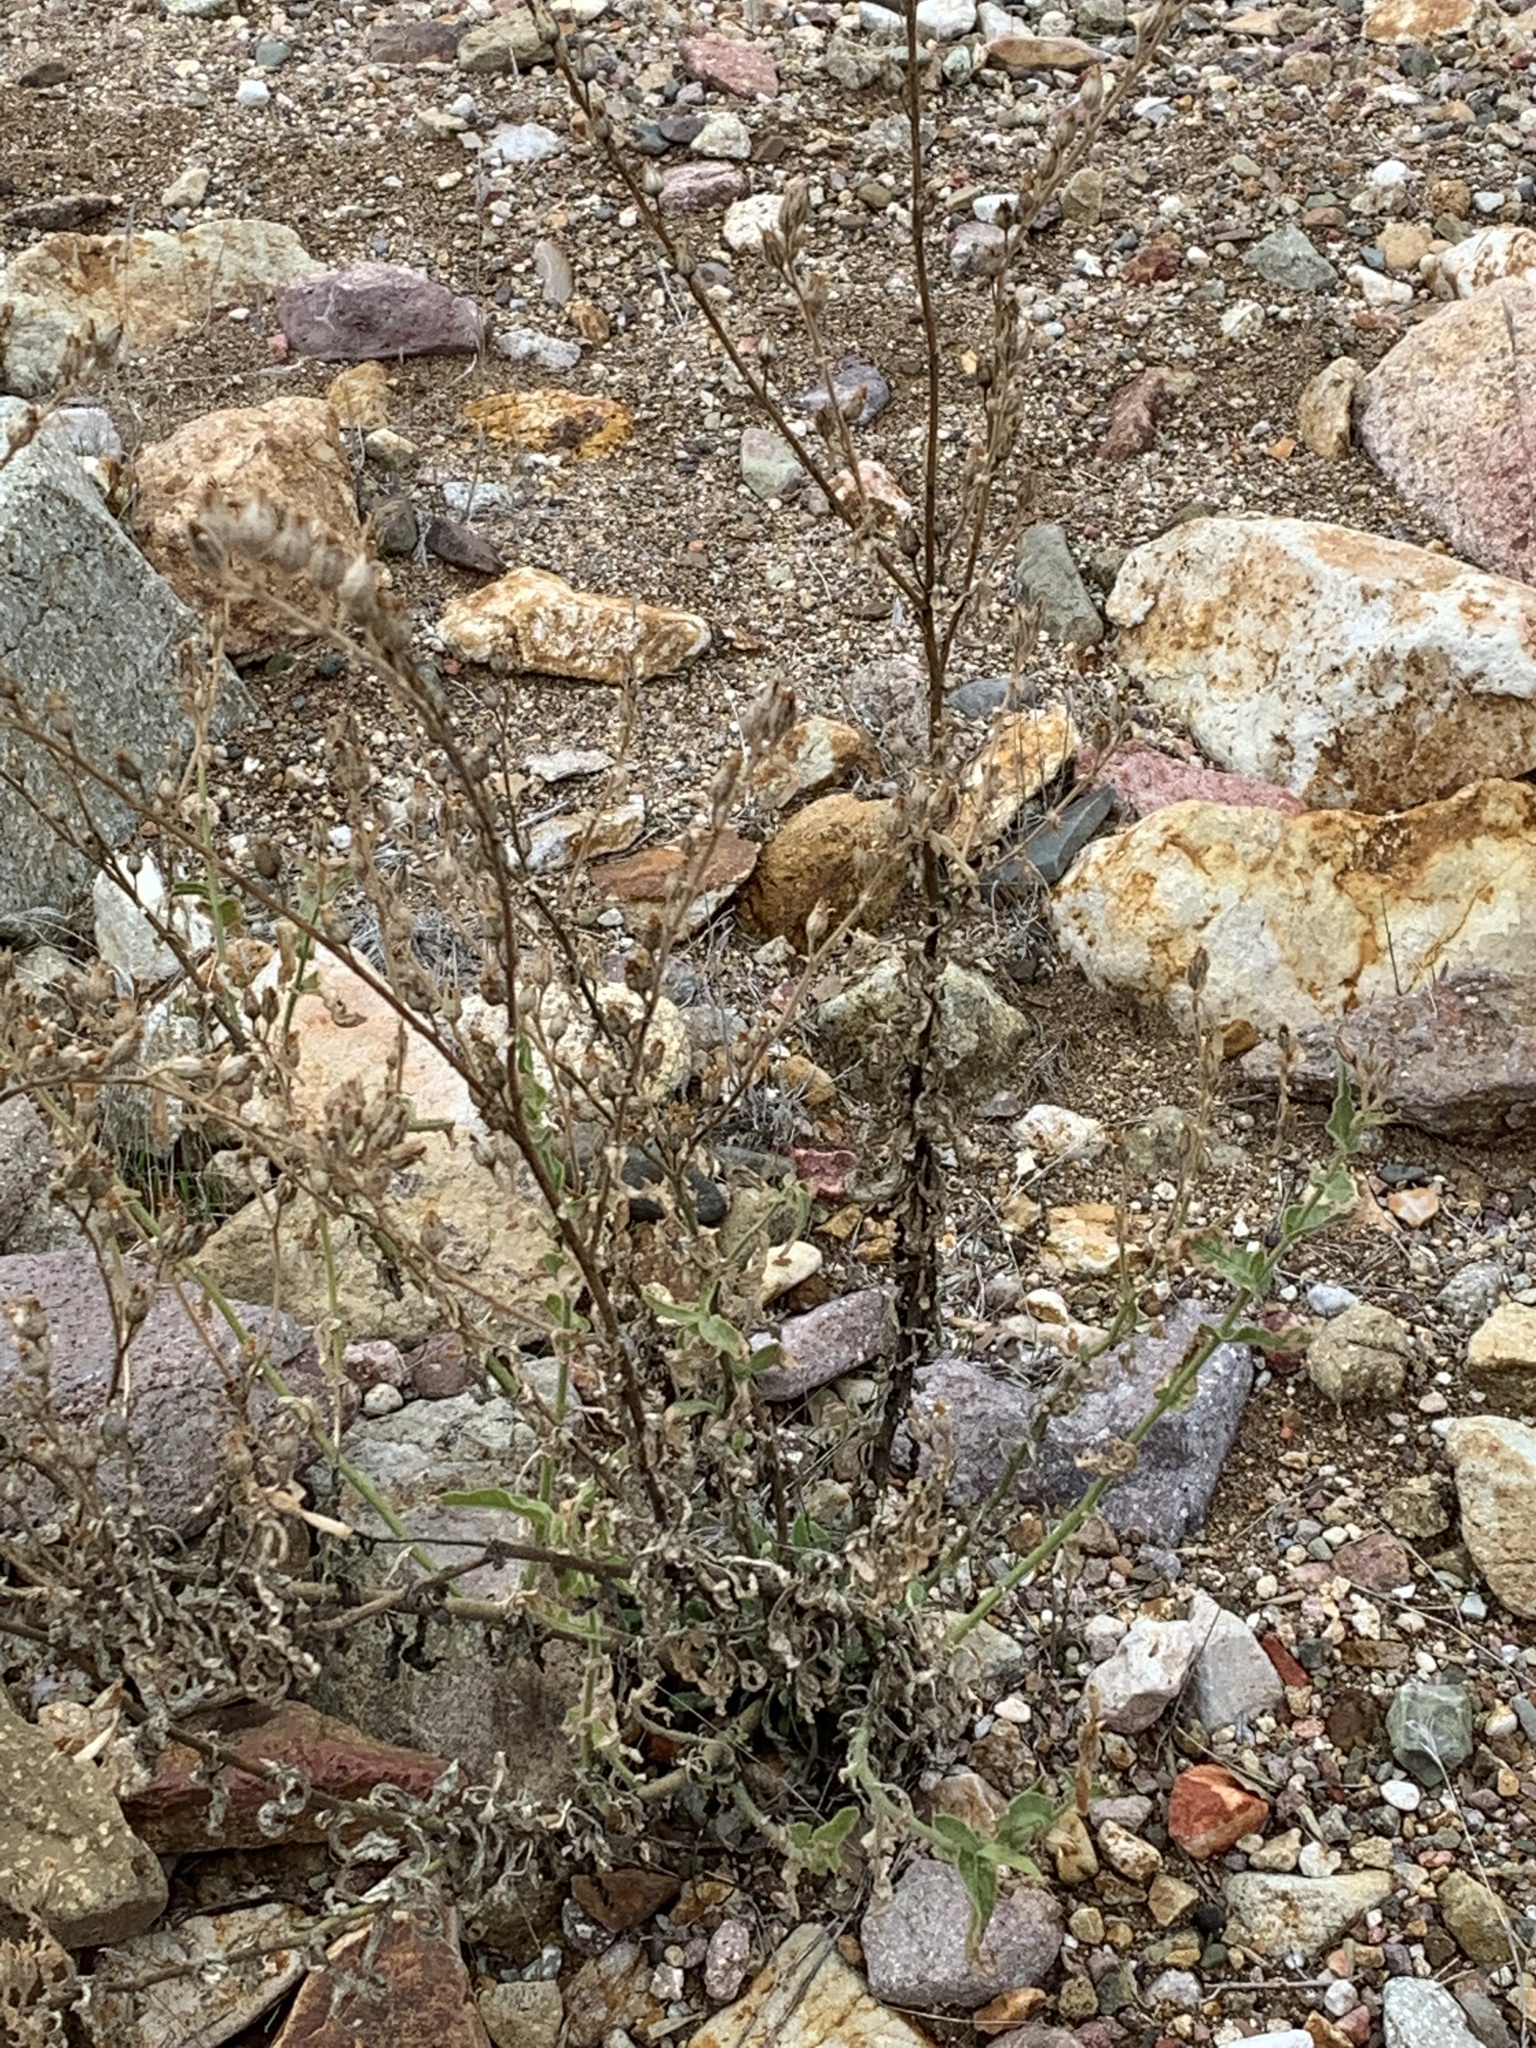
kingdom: Plantae
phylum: Tracheophyta
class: Magnoliopsida
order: Solanales
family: Solanaceae
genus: Nicotiana
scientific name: Nicotiana obtusifolia
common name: Desert tobacco
